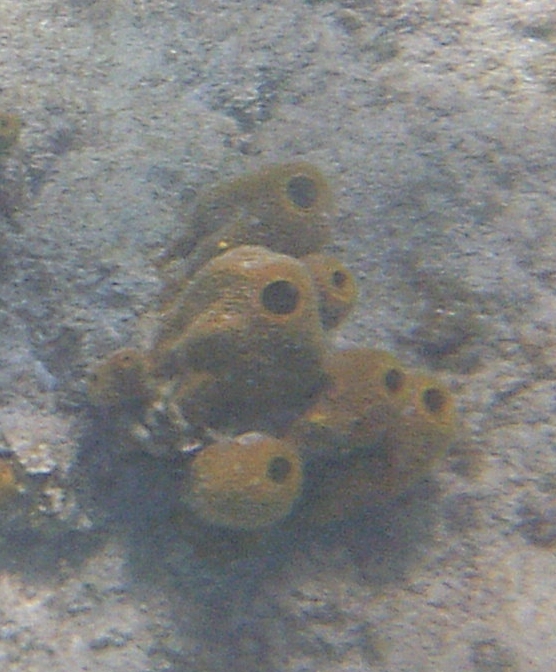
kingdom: Animalia
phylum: Porifera
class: Demospongiae
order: Verongiida
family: Aplysinidae
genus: Aplysina
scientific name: Aplysina insularis
